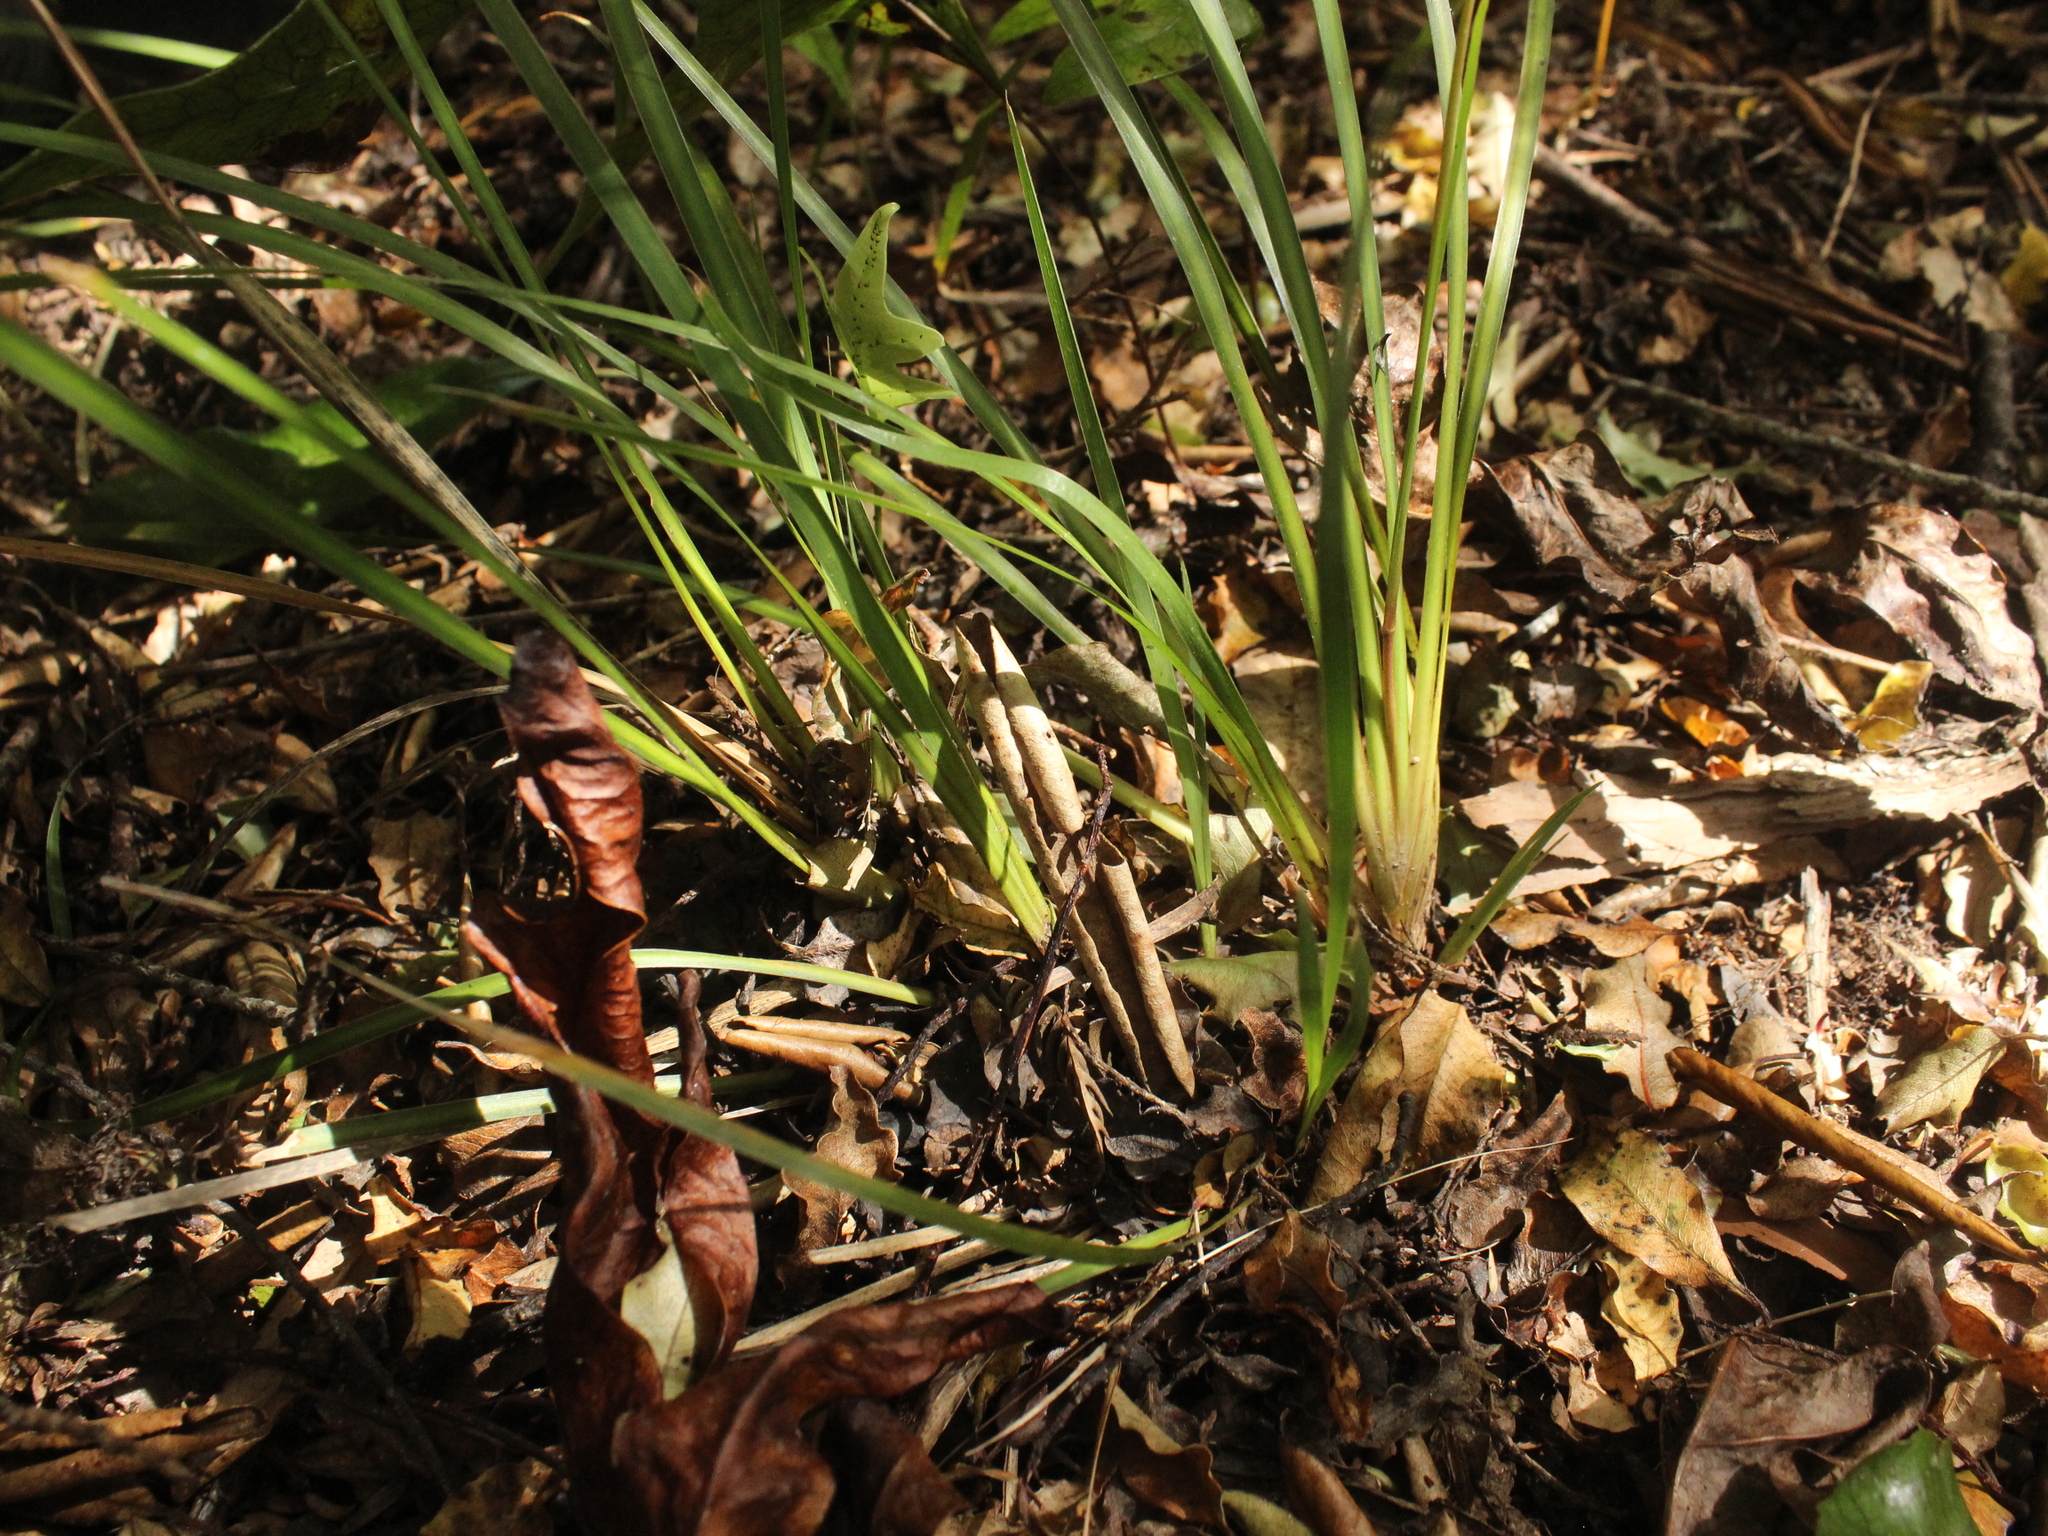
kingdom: Plantae
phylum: Tracheophyta
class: Liliopsida
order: Asparagales
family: Iridaceae
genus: Libertia
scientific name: Libertia edgariae
